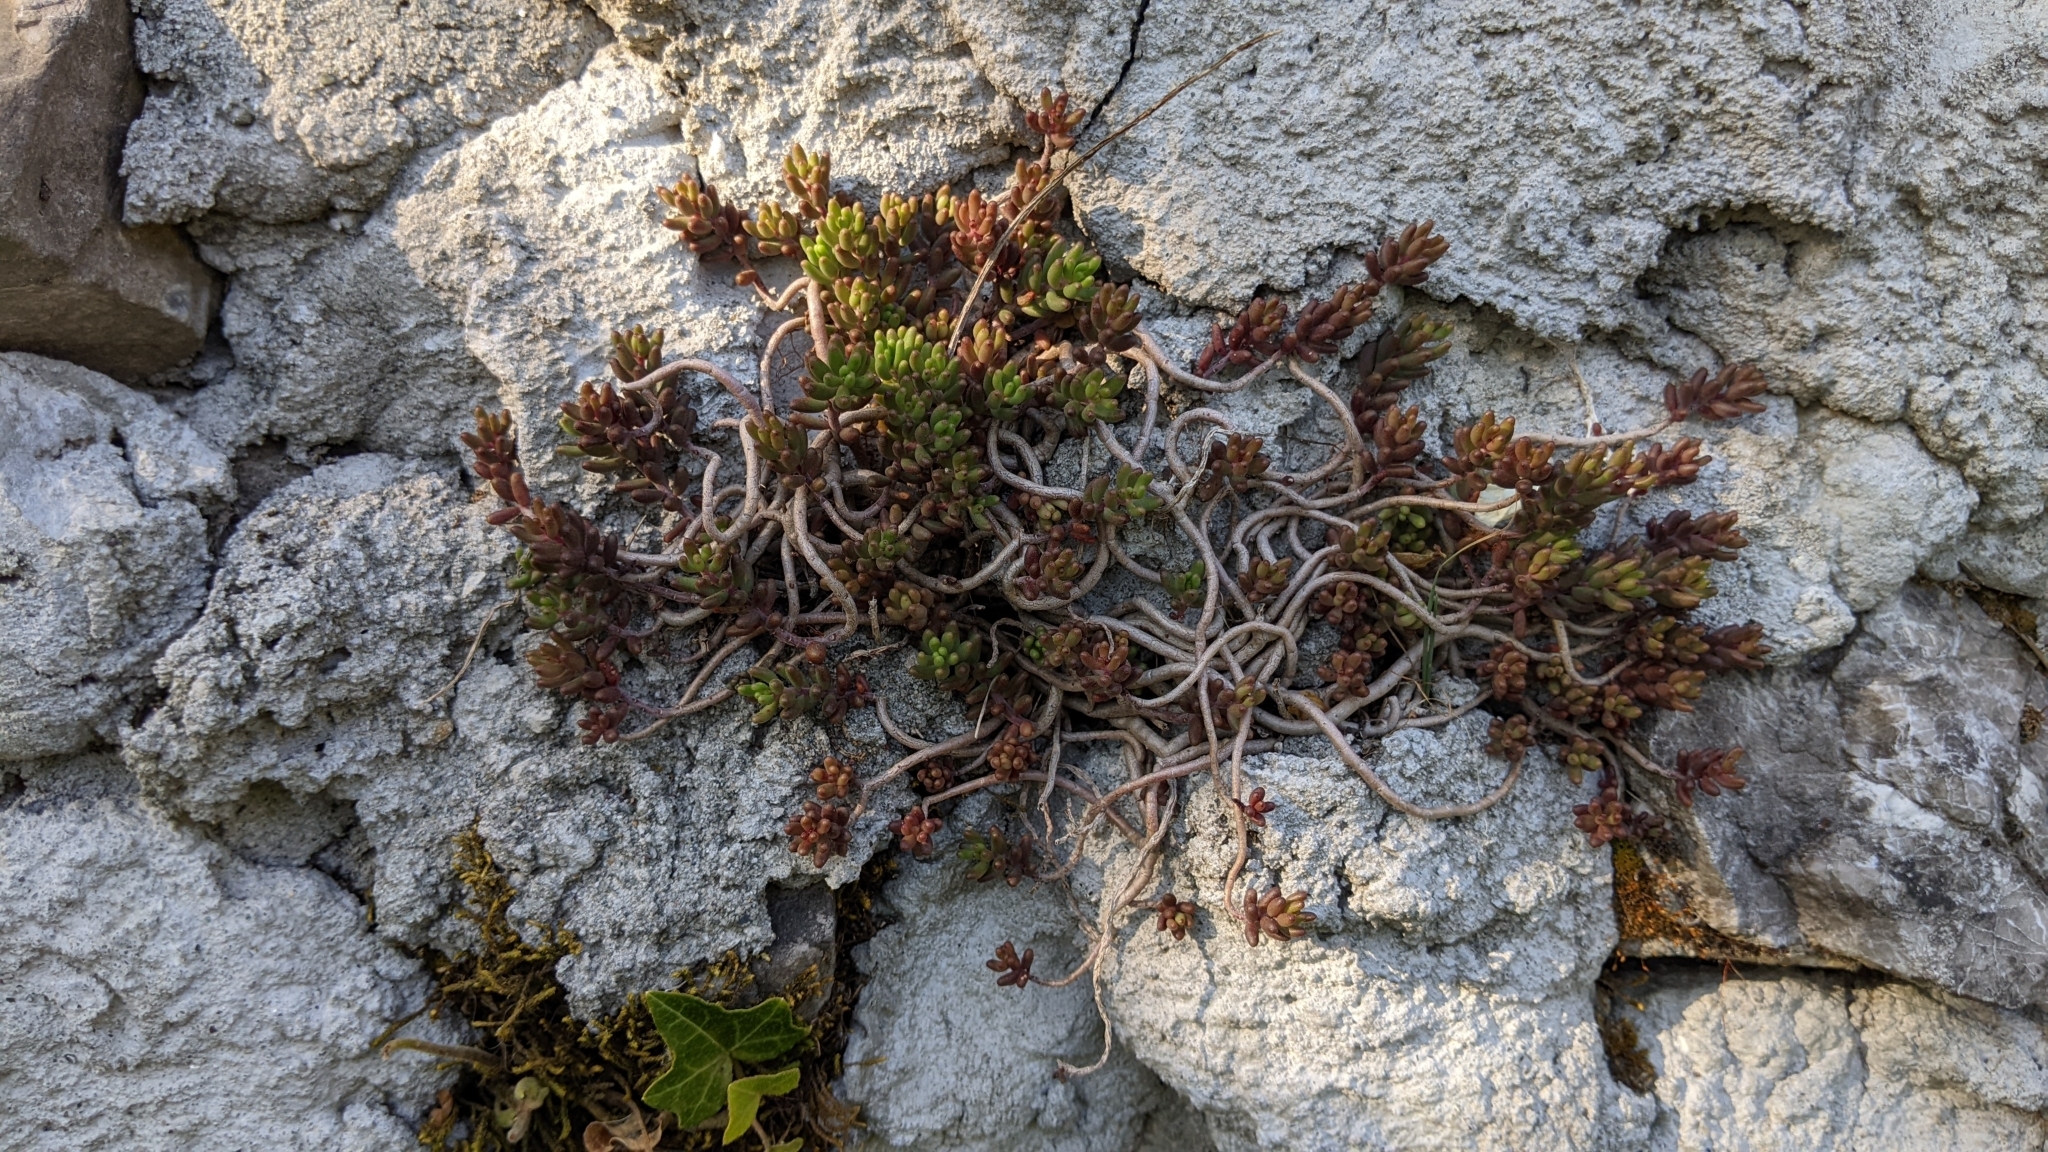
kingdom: Plantae
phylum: Tracheophyta
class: Magnoliopsida
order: Saxifragales
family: Crassulaceae
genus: Sedum
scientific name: Sedum album
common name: White stonecrop
